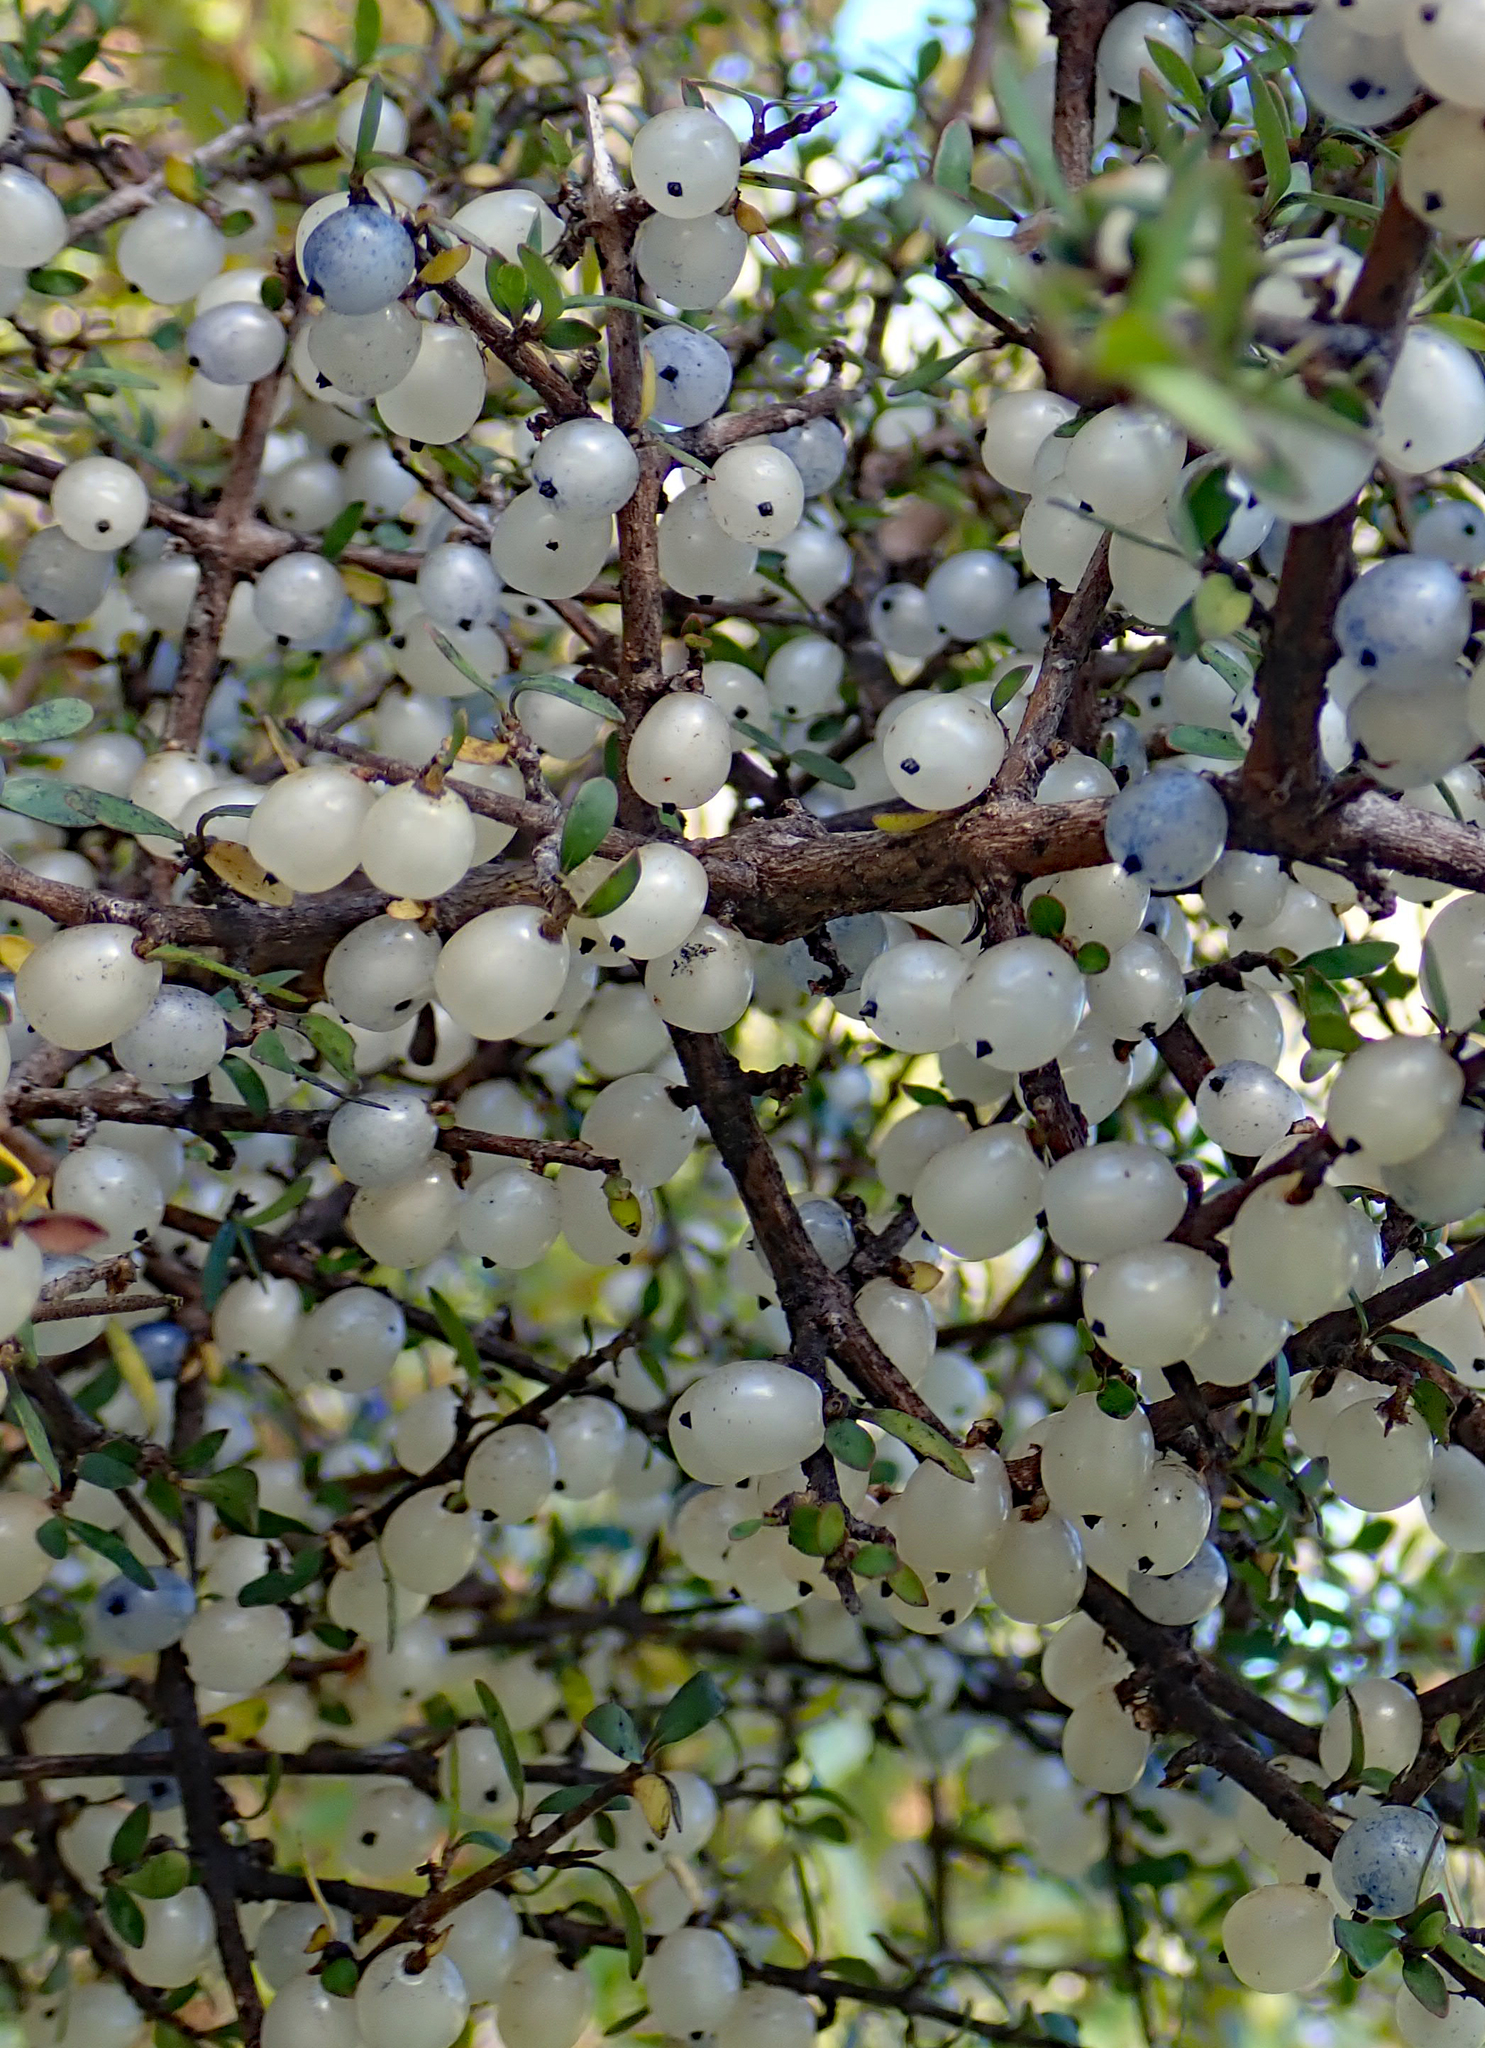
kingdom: Plantae
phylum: Tracheophyta
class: Magnoliopsida
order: Gentianales
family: Rubiaceae
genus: Coprosma
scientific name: Coprosma propinqua
